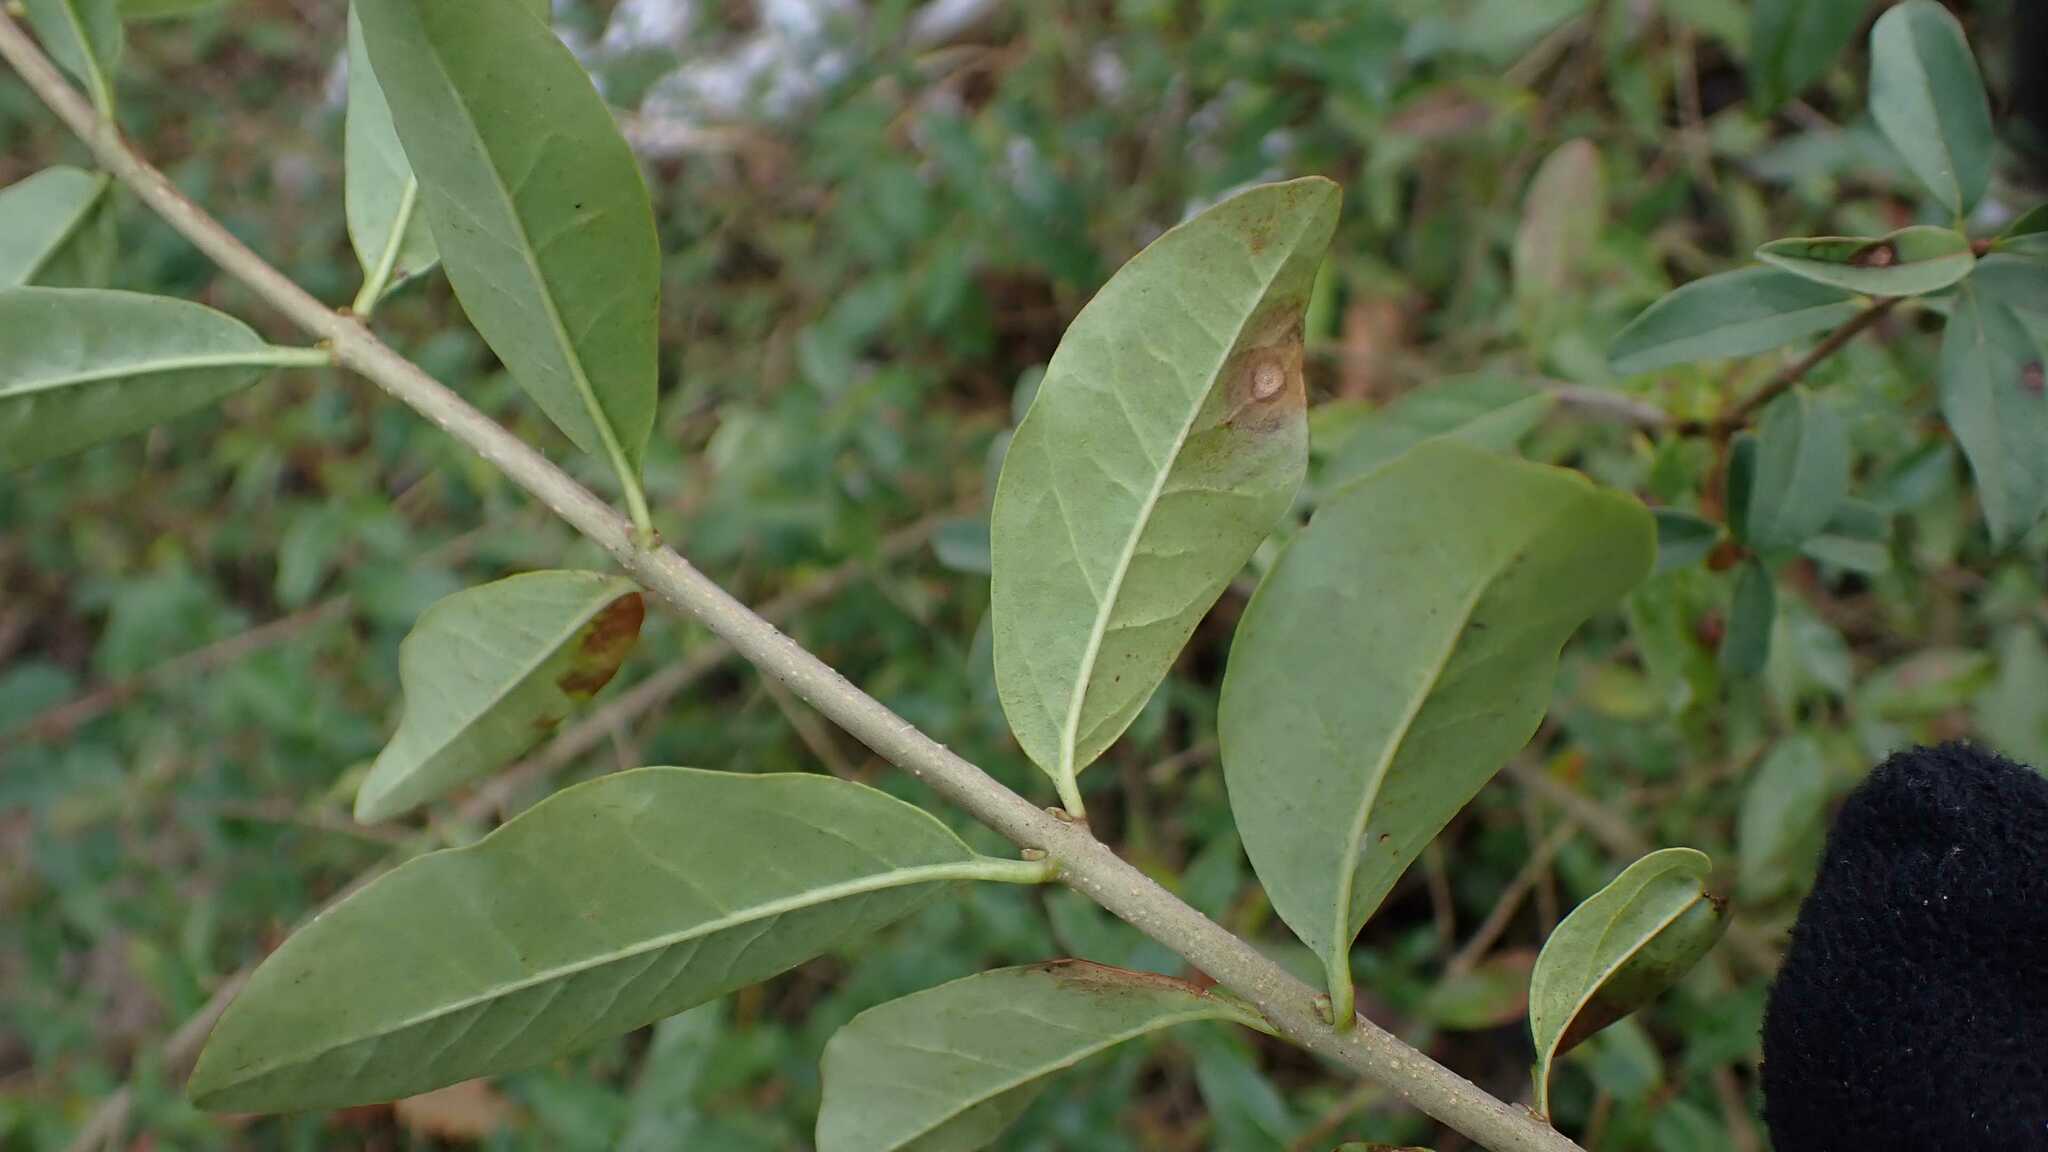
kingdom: Plantae
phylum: Tracheophyta
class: Magnoliopsida
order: Lamiales
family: Oleaceae
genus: Ligustrum
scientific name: Ligustrum vulgare
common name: Wild privet
